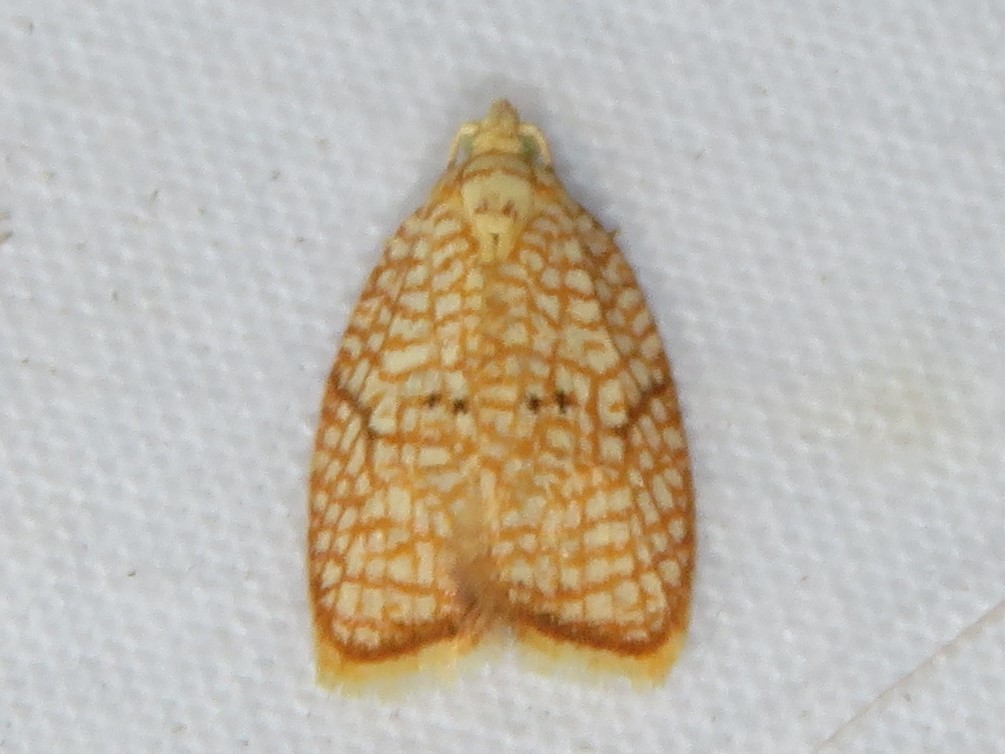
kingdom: Animalia
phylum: Arthropoda
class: Insecta
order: Lepidoptera
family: Tortricidae
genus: Acleris
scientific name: Acleris forsskaleana
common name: Maple button
